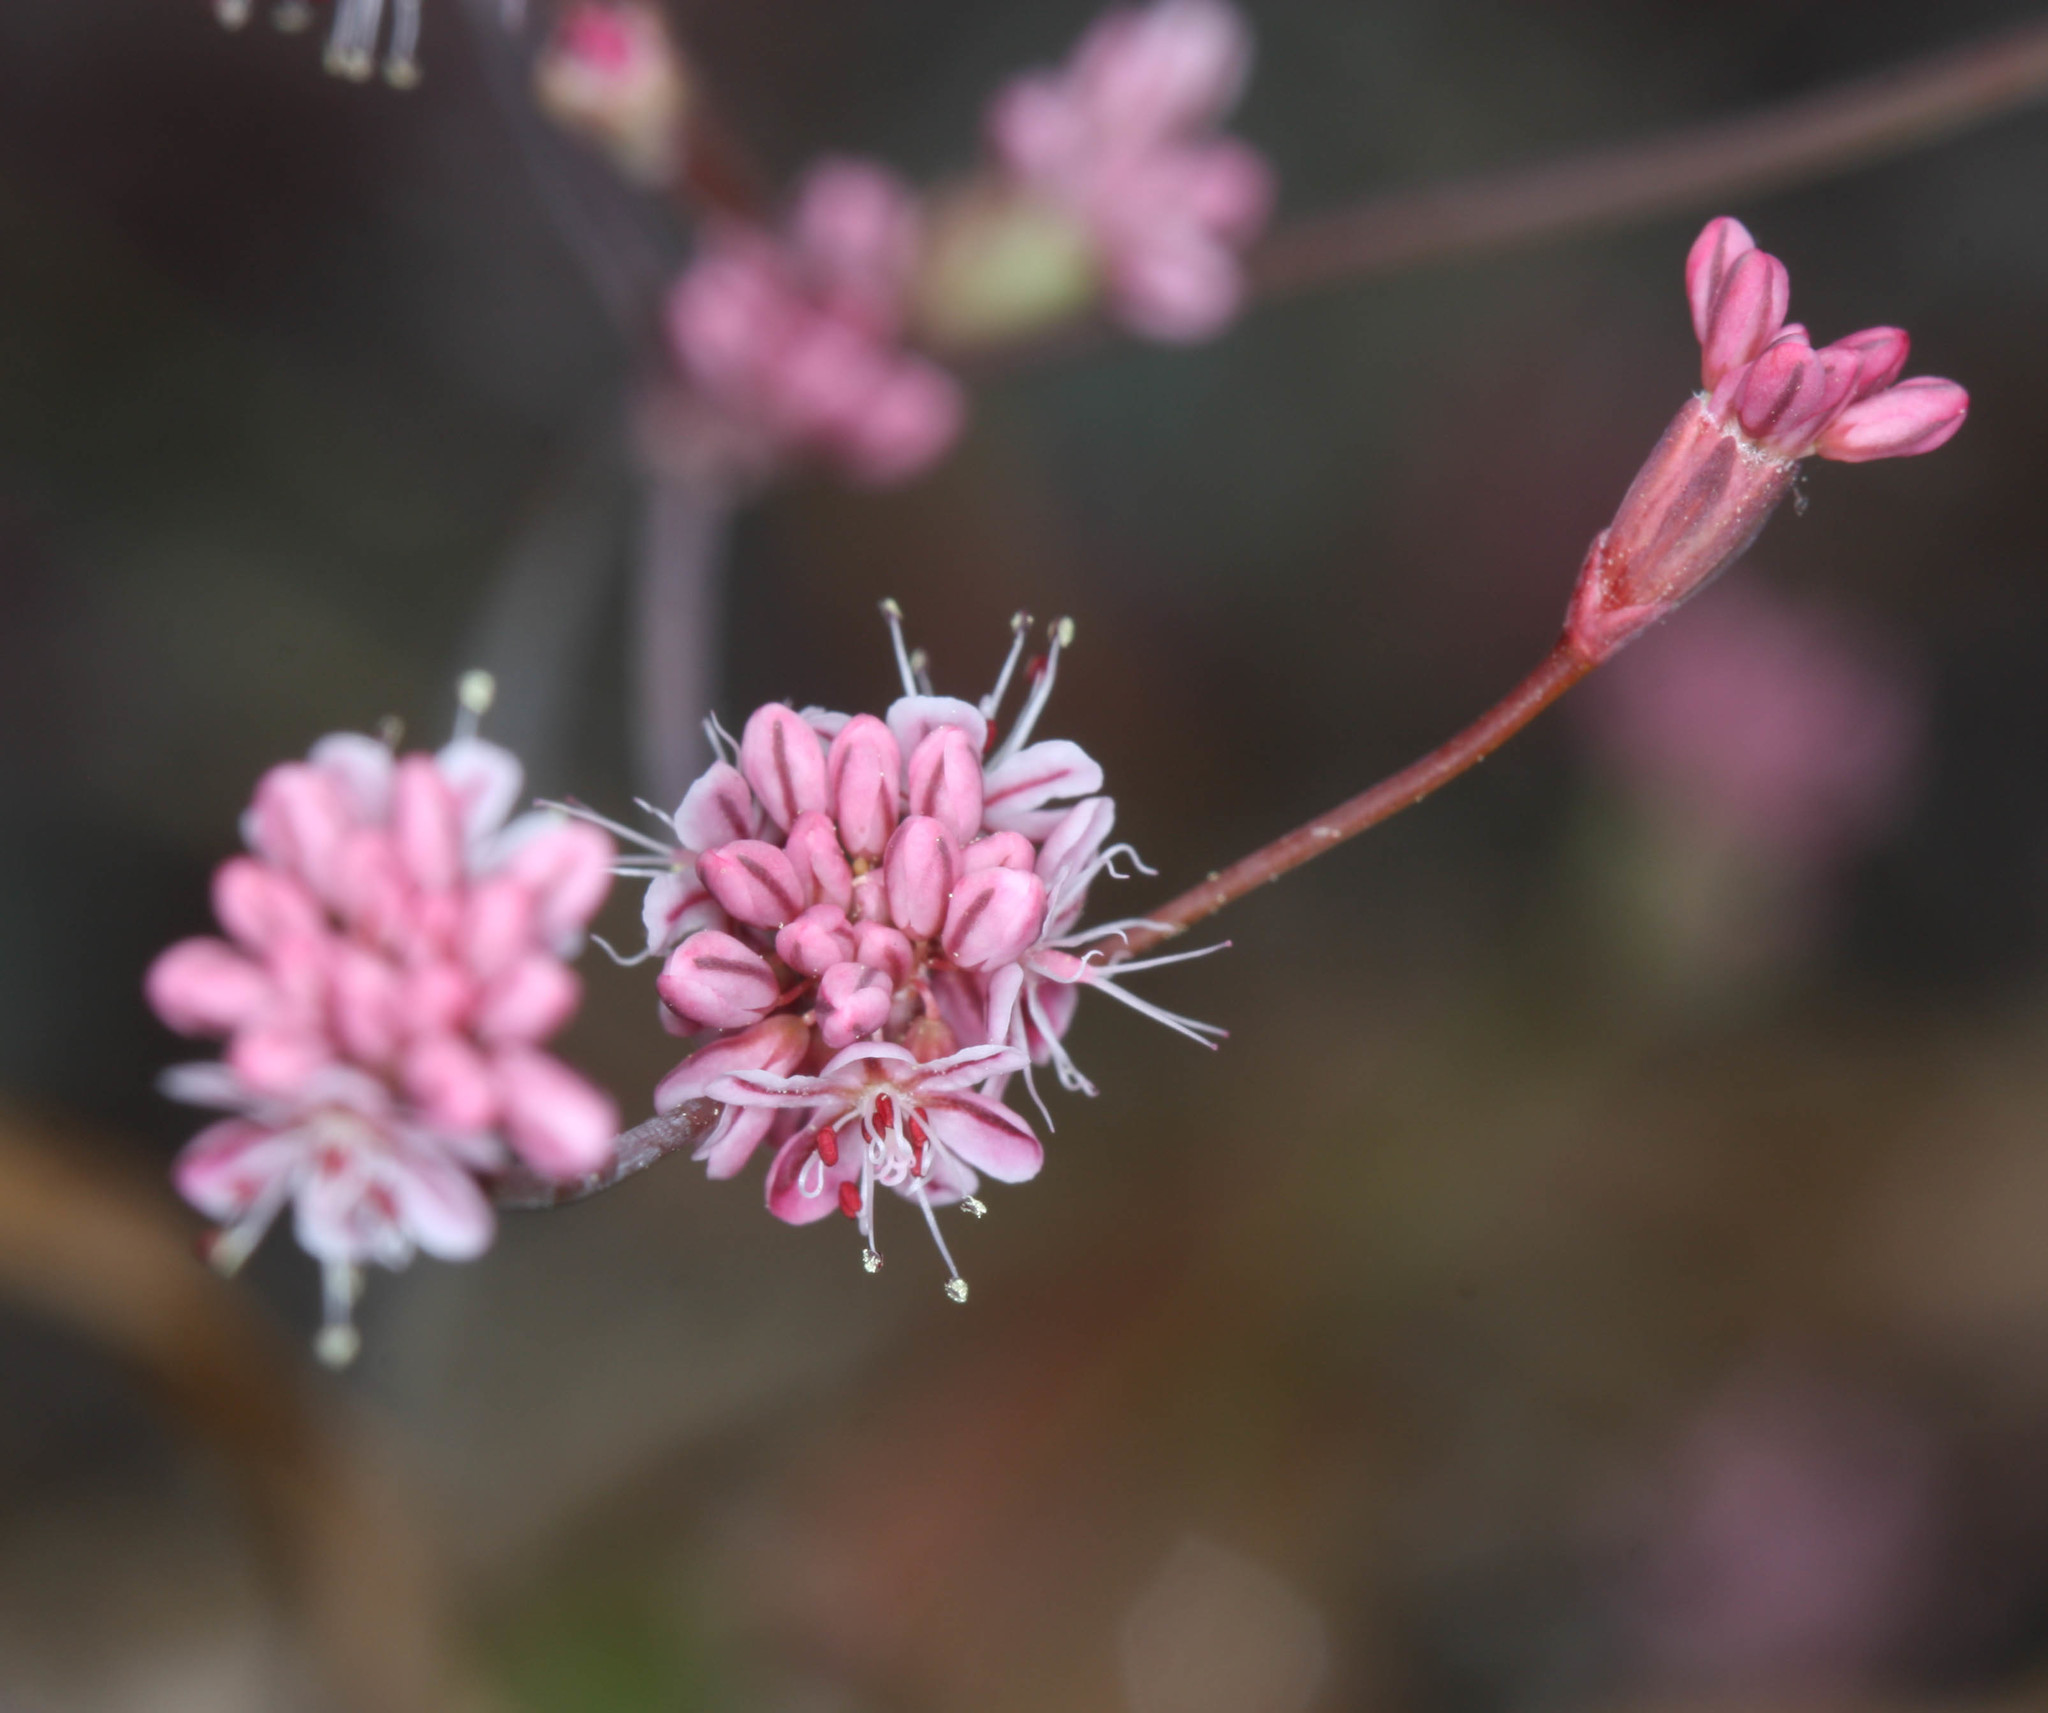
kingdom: Plantae
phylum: Tracheophyta
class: Magnoliopsida
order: Caryophyllales
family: Polygonaceae
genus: Eriogonum
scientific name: Eriogonum luteolum
